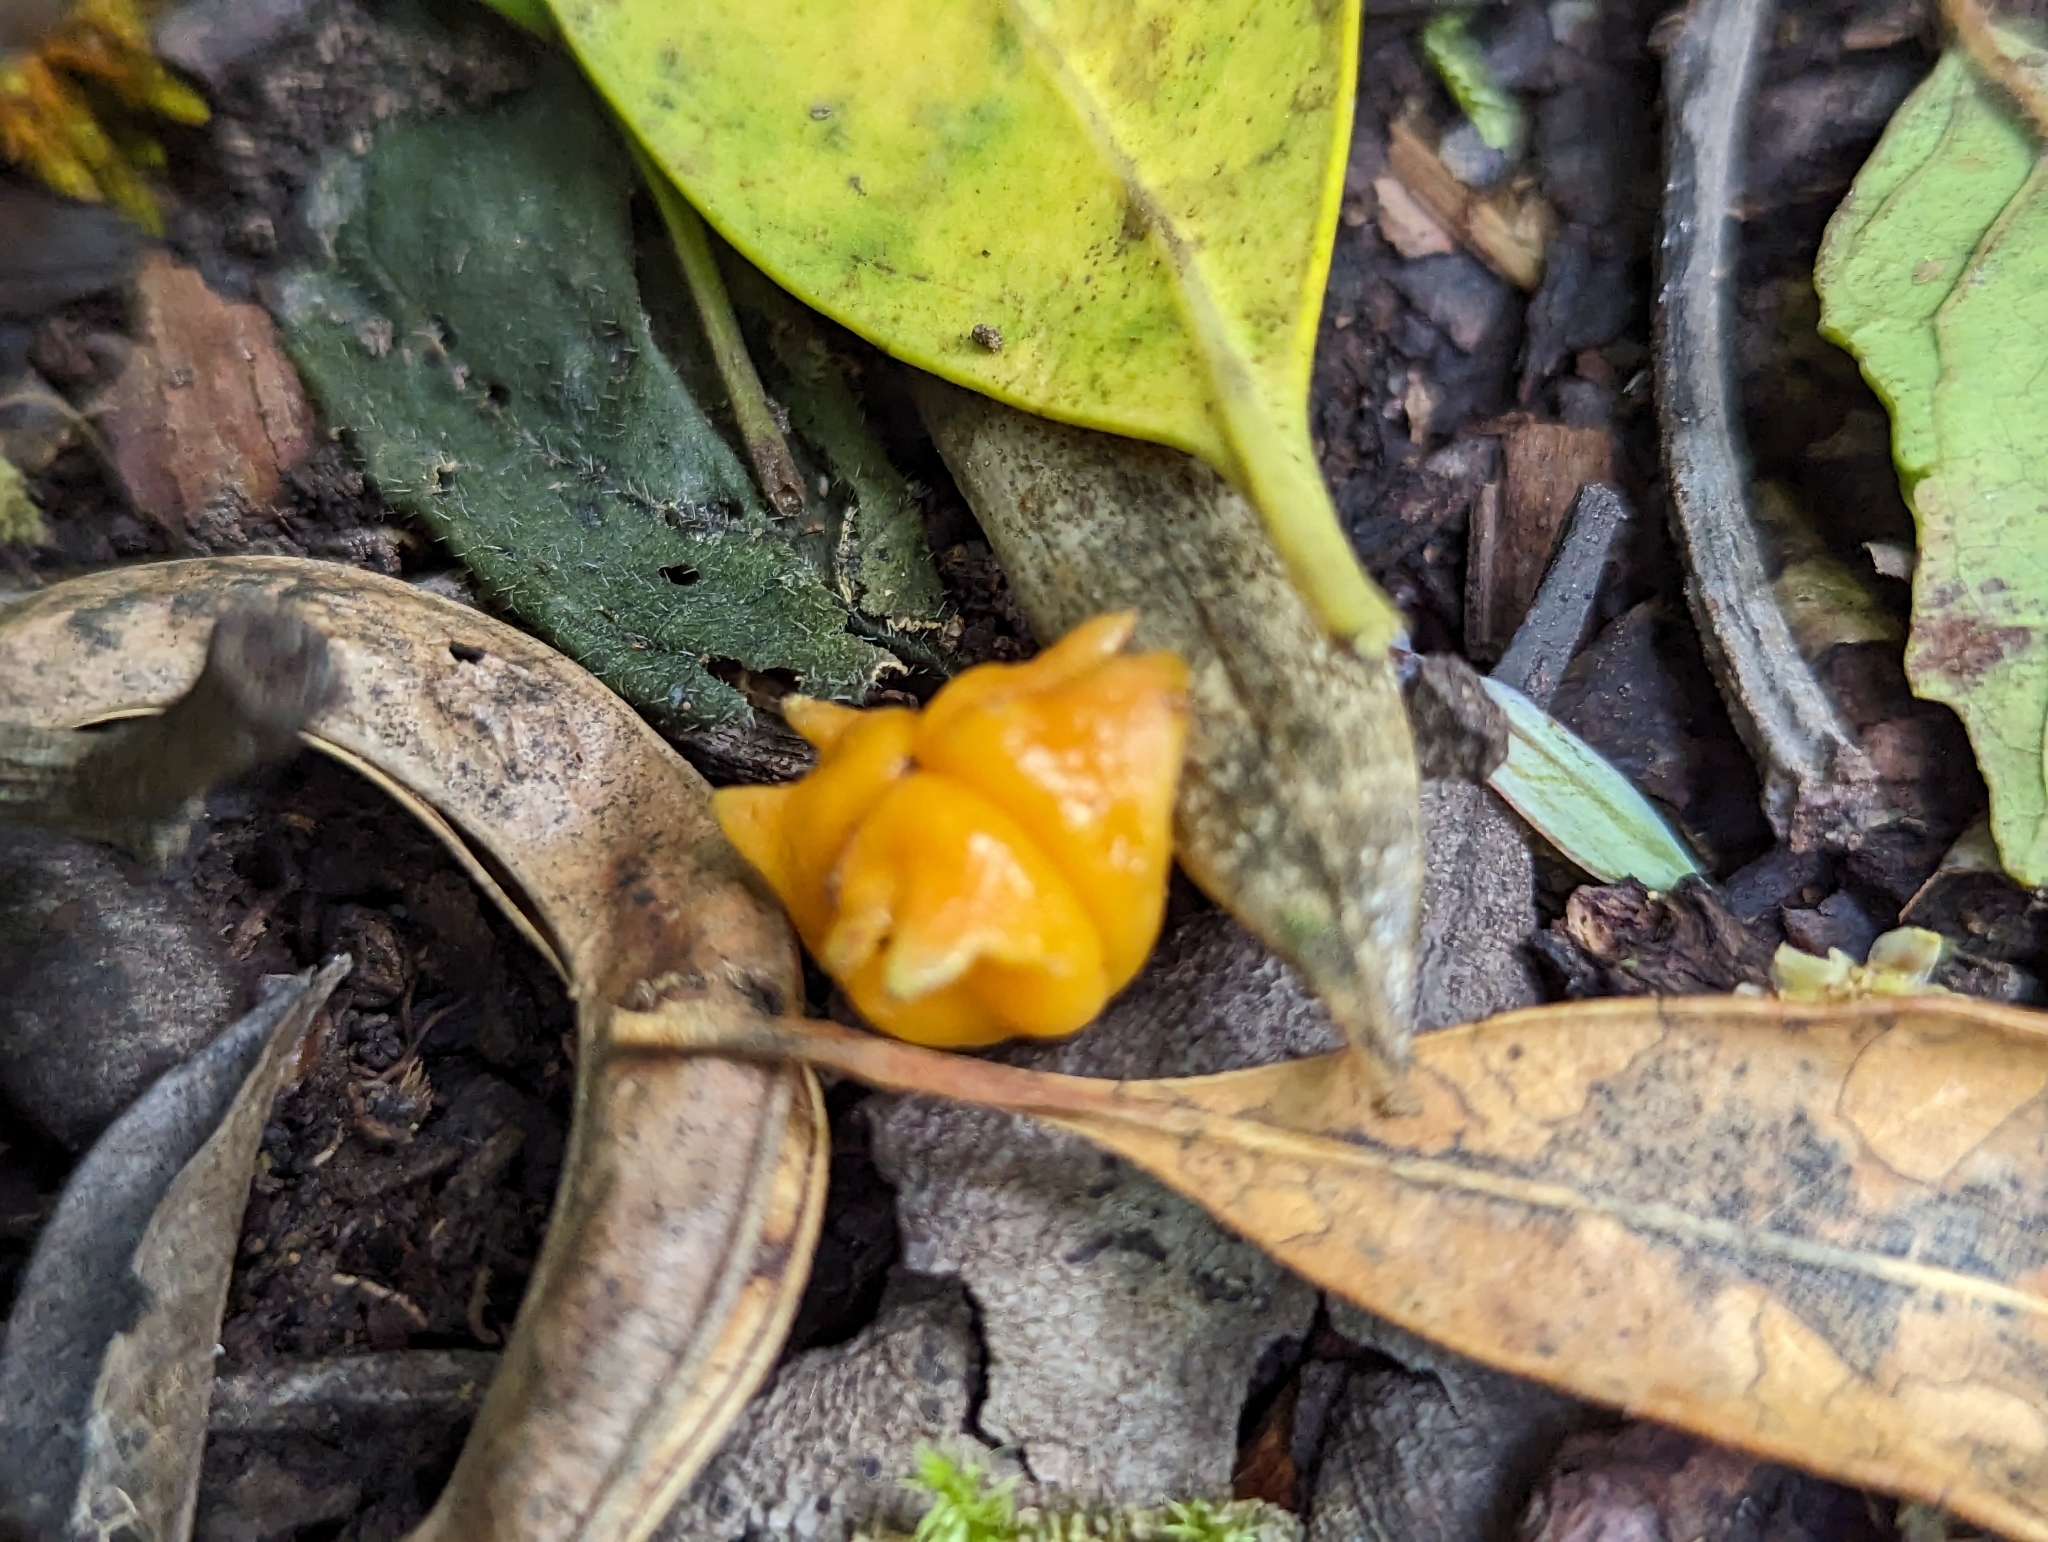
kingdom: Plantae
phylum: Tracheophyta
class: Magnoliopsida
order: Celastrales
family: Celastraceae
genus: Pterocelastrus
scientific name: Pterocelastrus tricuspidatus
